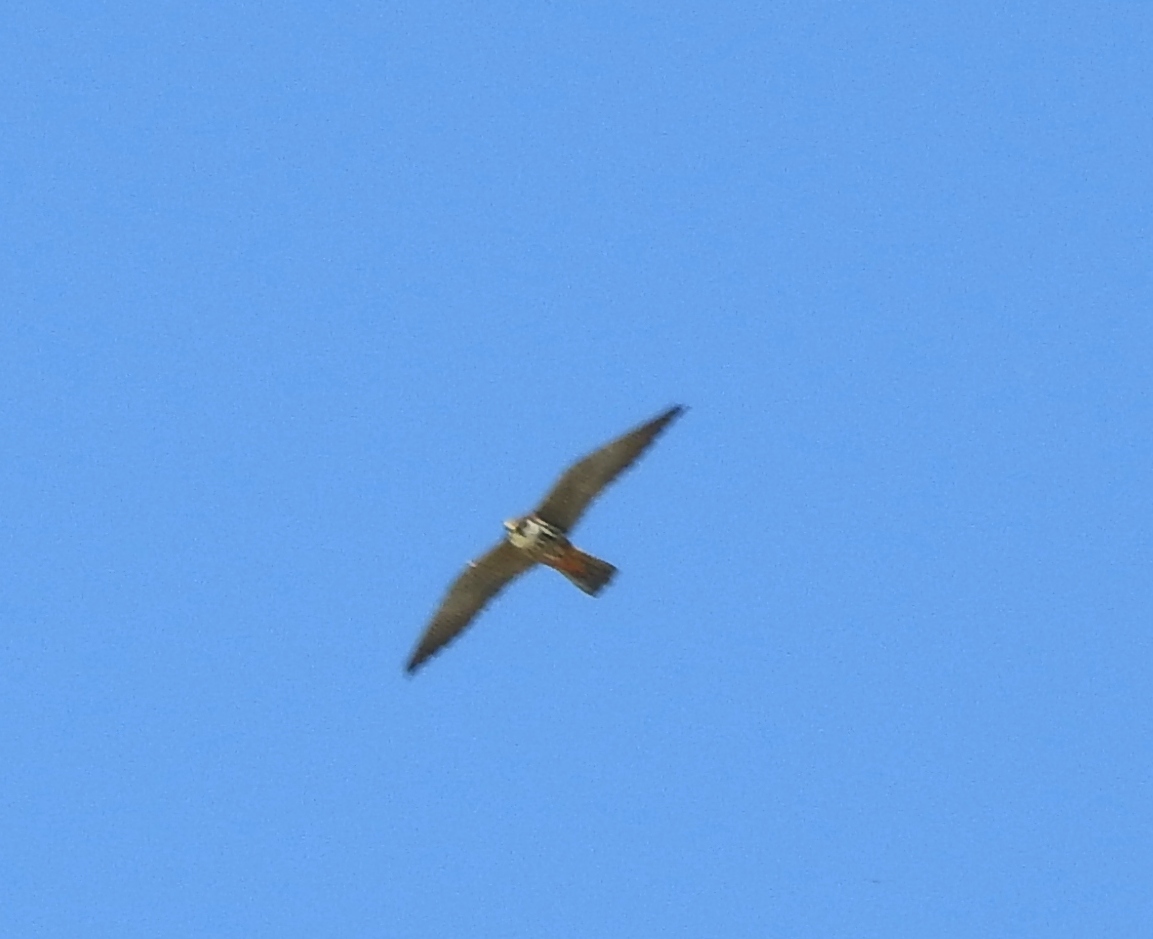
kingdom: Animalia
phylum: Chordata
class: Aves
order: Falconiformes
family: Falconidae
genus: Falco
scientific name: Falco subbuteo
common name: Eurasian hobby
